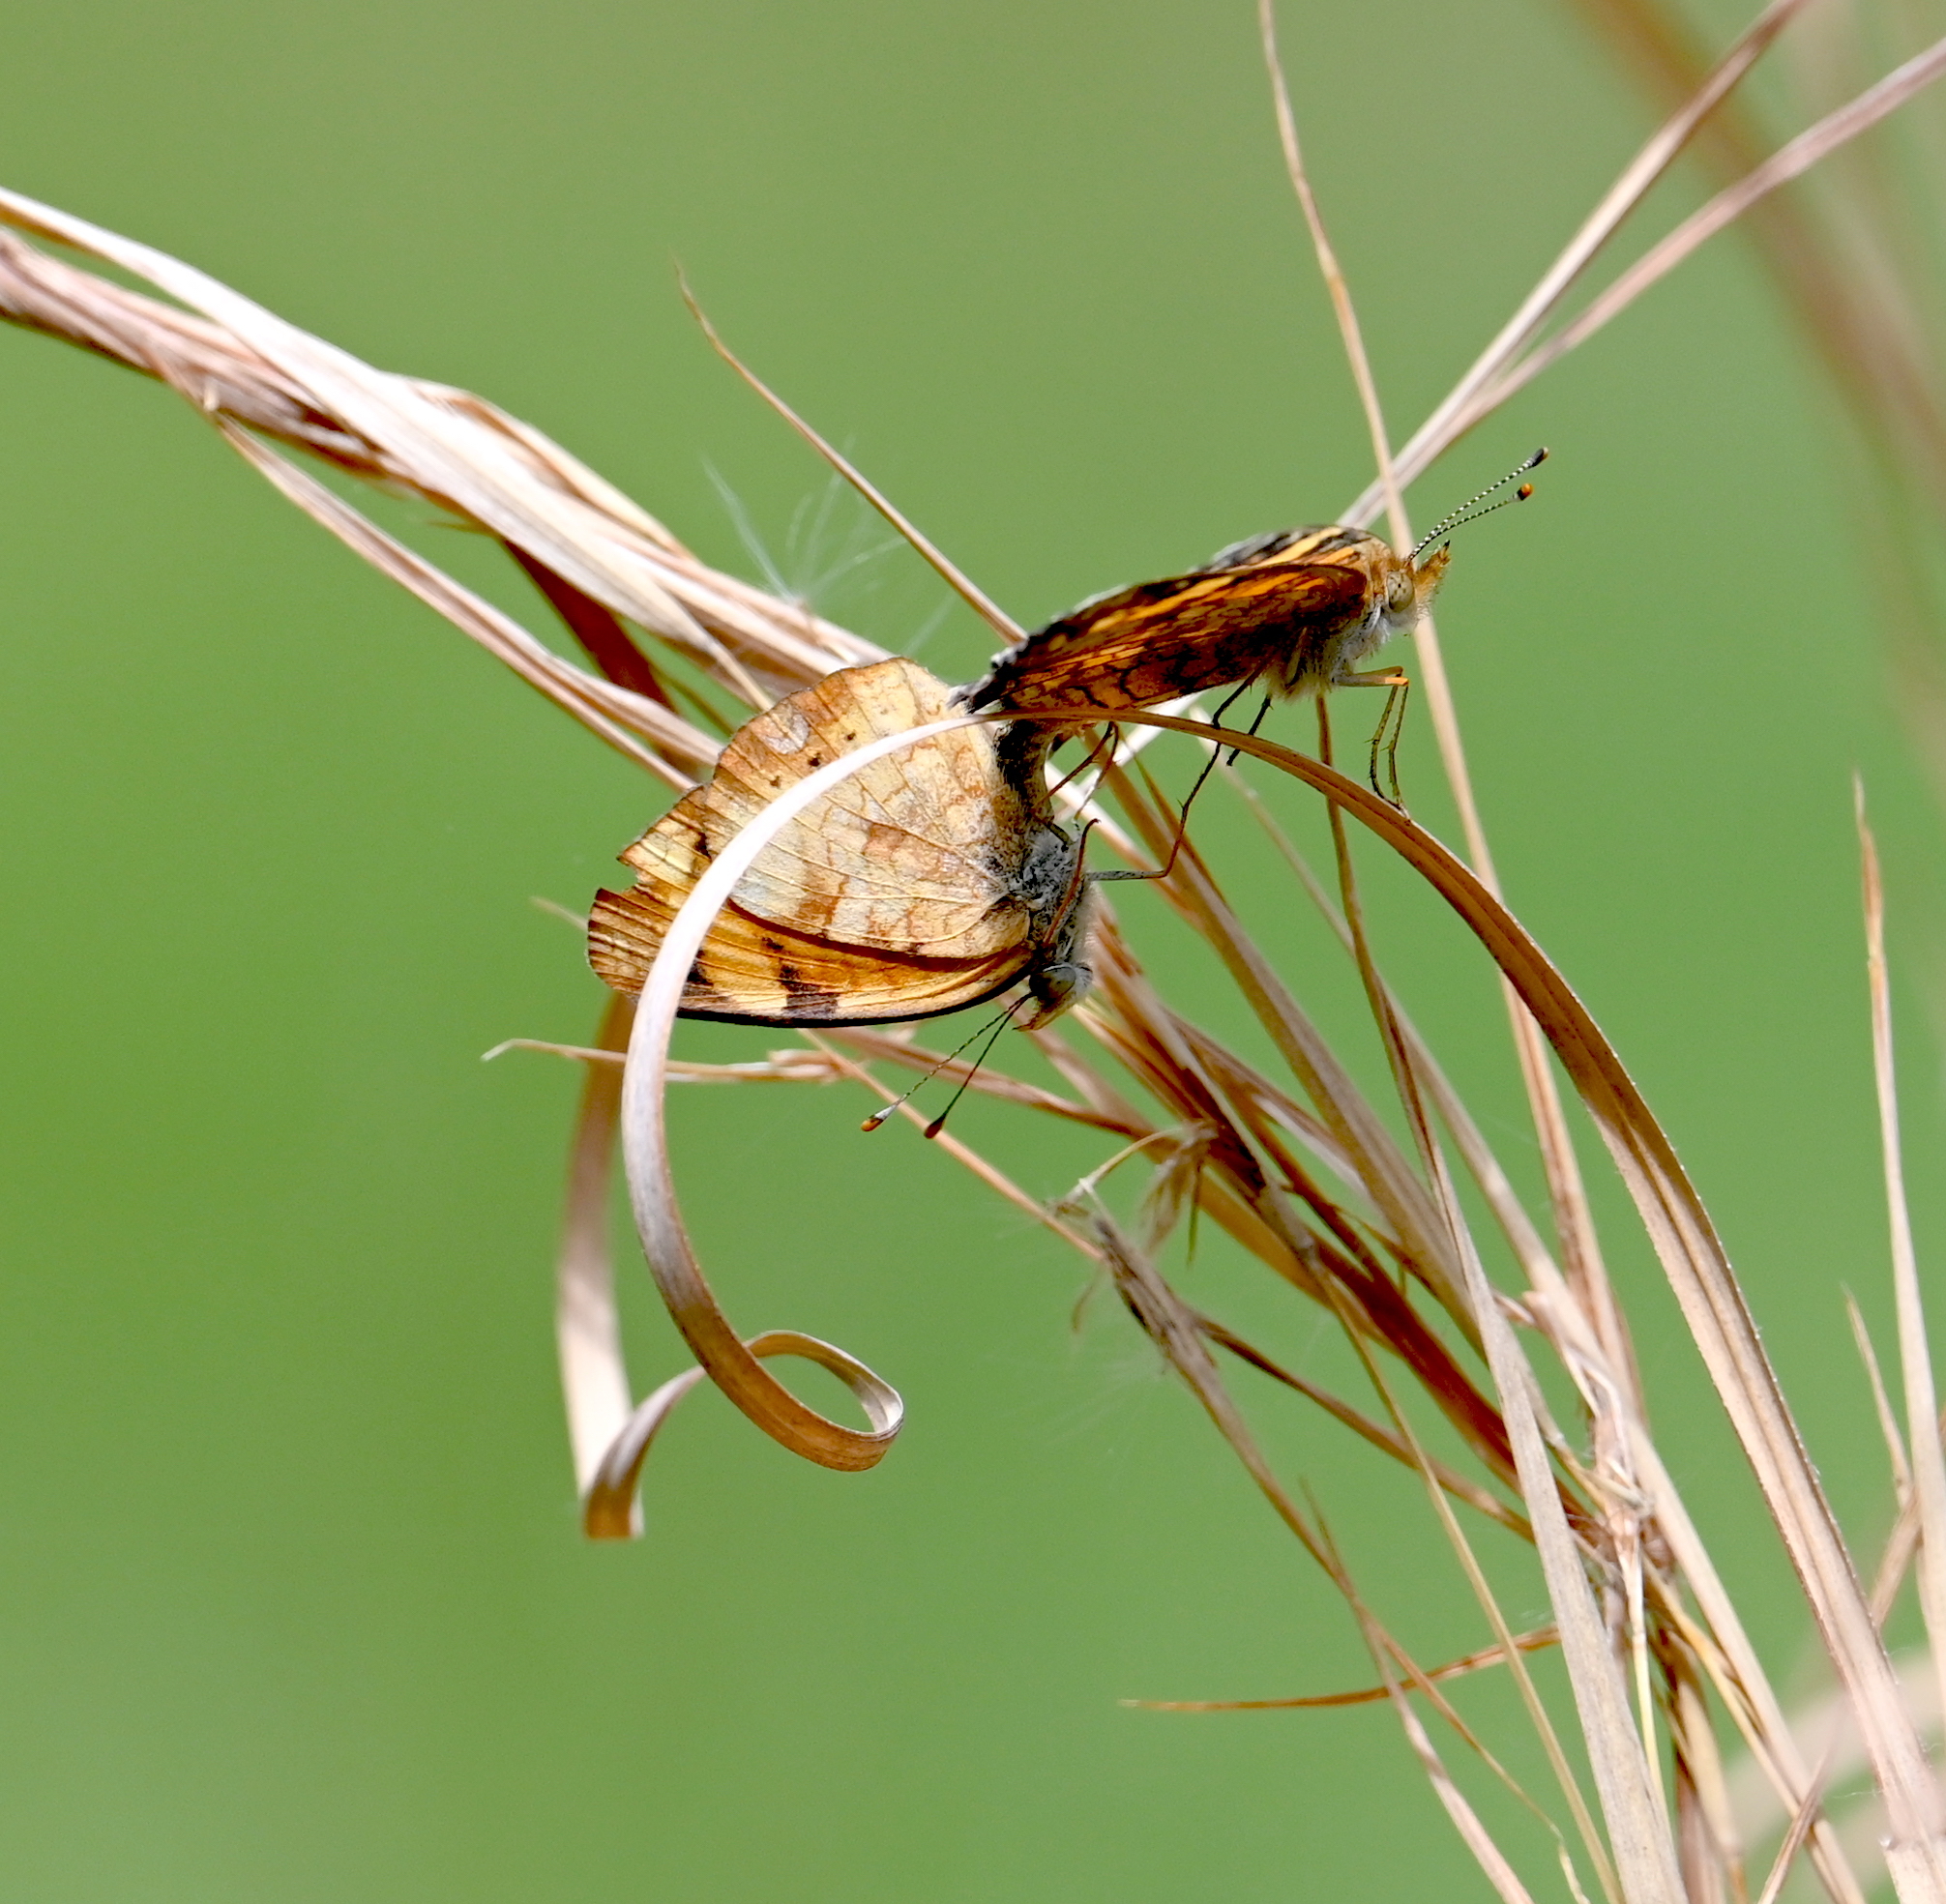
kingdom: Animalia
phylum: Arthropoda
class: Insecta
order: Lepidoptera
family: Nymphalidae
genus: Phyciodes
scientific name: Phyciodes tharos
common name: Pearl crescent
